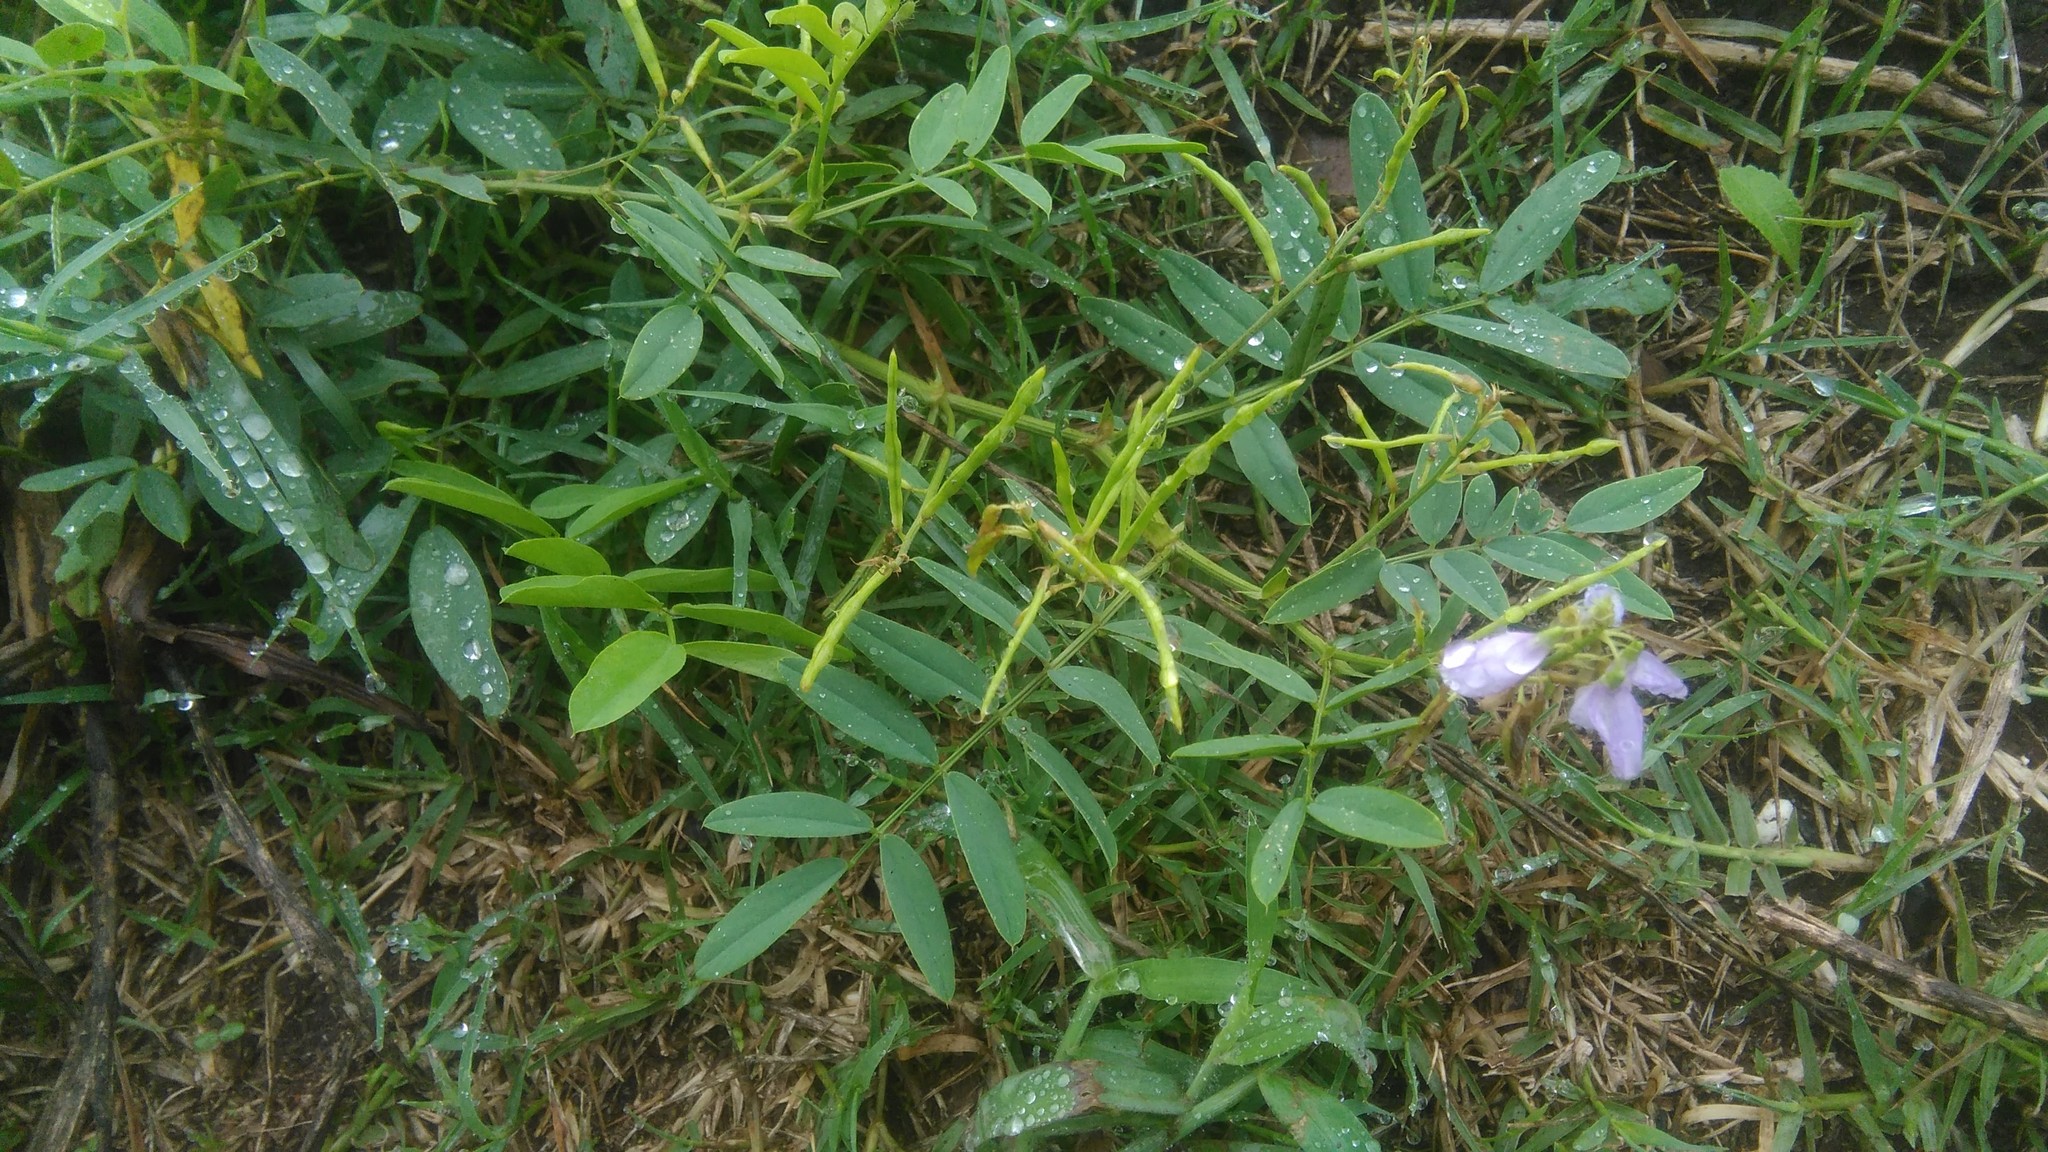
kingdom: Plantae
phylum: Tracheophyta
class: Magnoliopsida
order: Fabales
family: Fabaceae
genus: Galega
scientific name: Galega officinalis
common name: Goat's-rue
